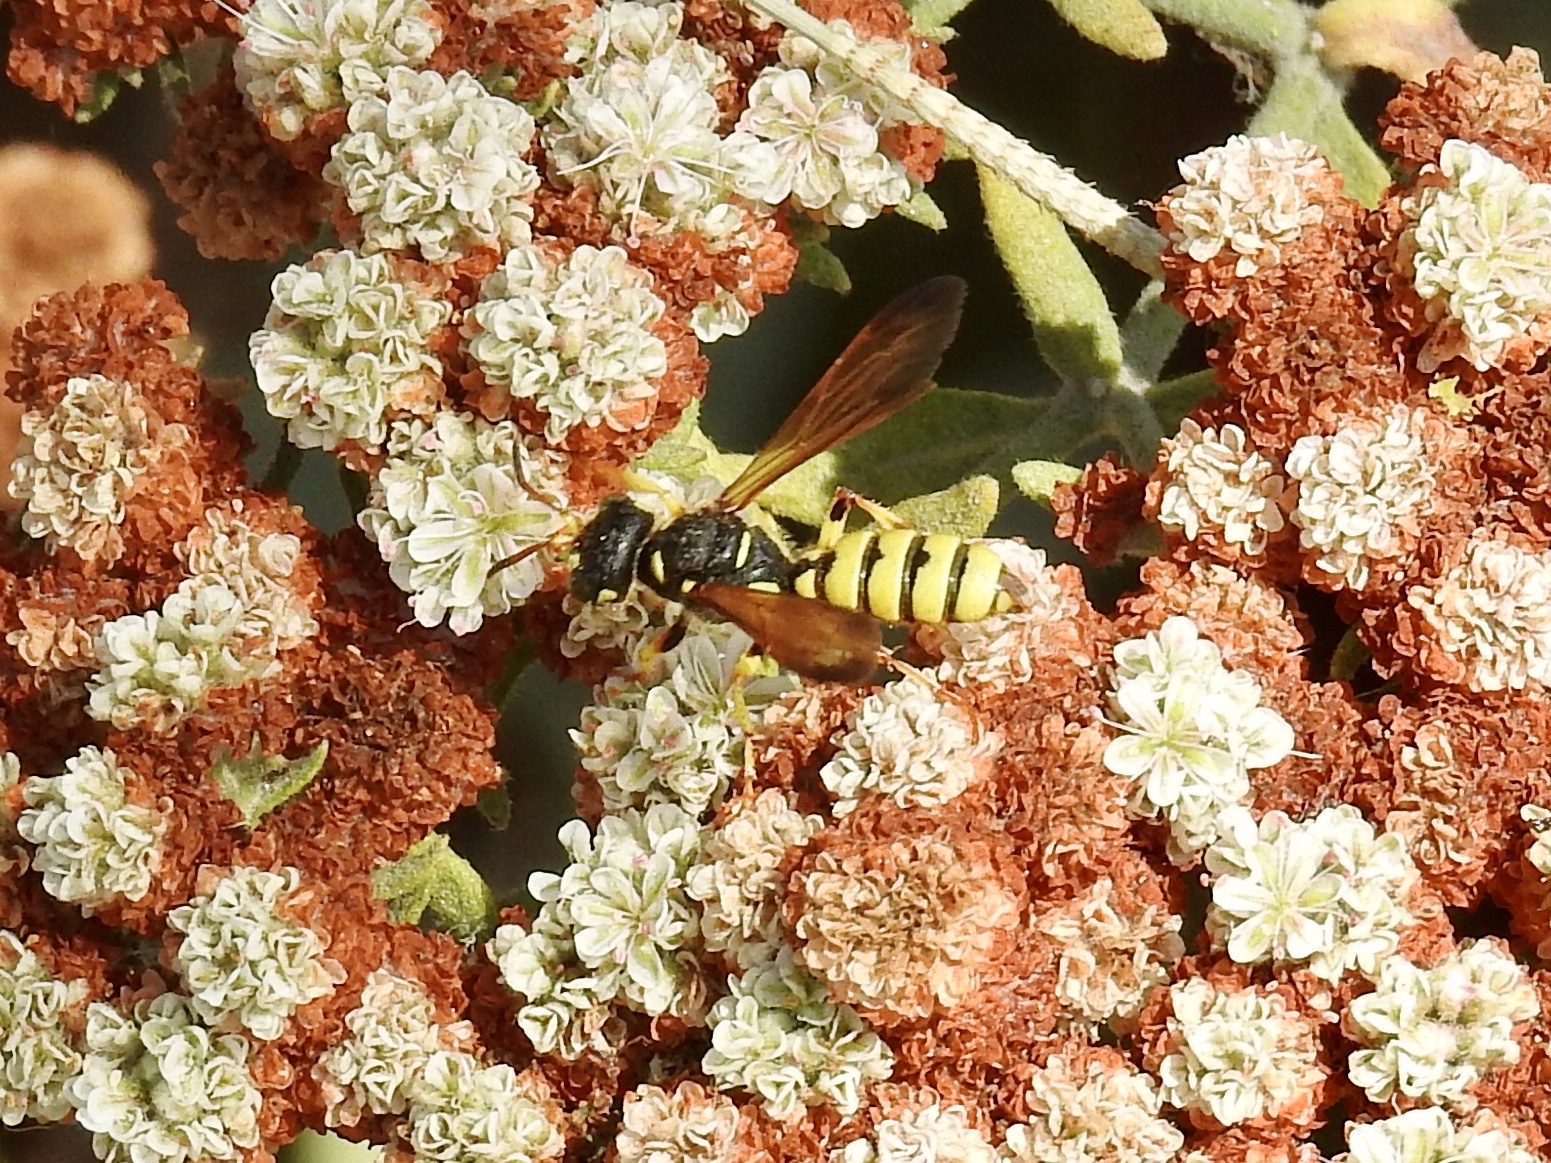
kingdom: Animalia
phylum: Arthropoda
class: Insecta
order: Hymenoptera
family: Crabronidae
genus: Cerceris
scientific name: Cerceris sextoides
